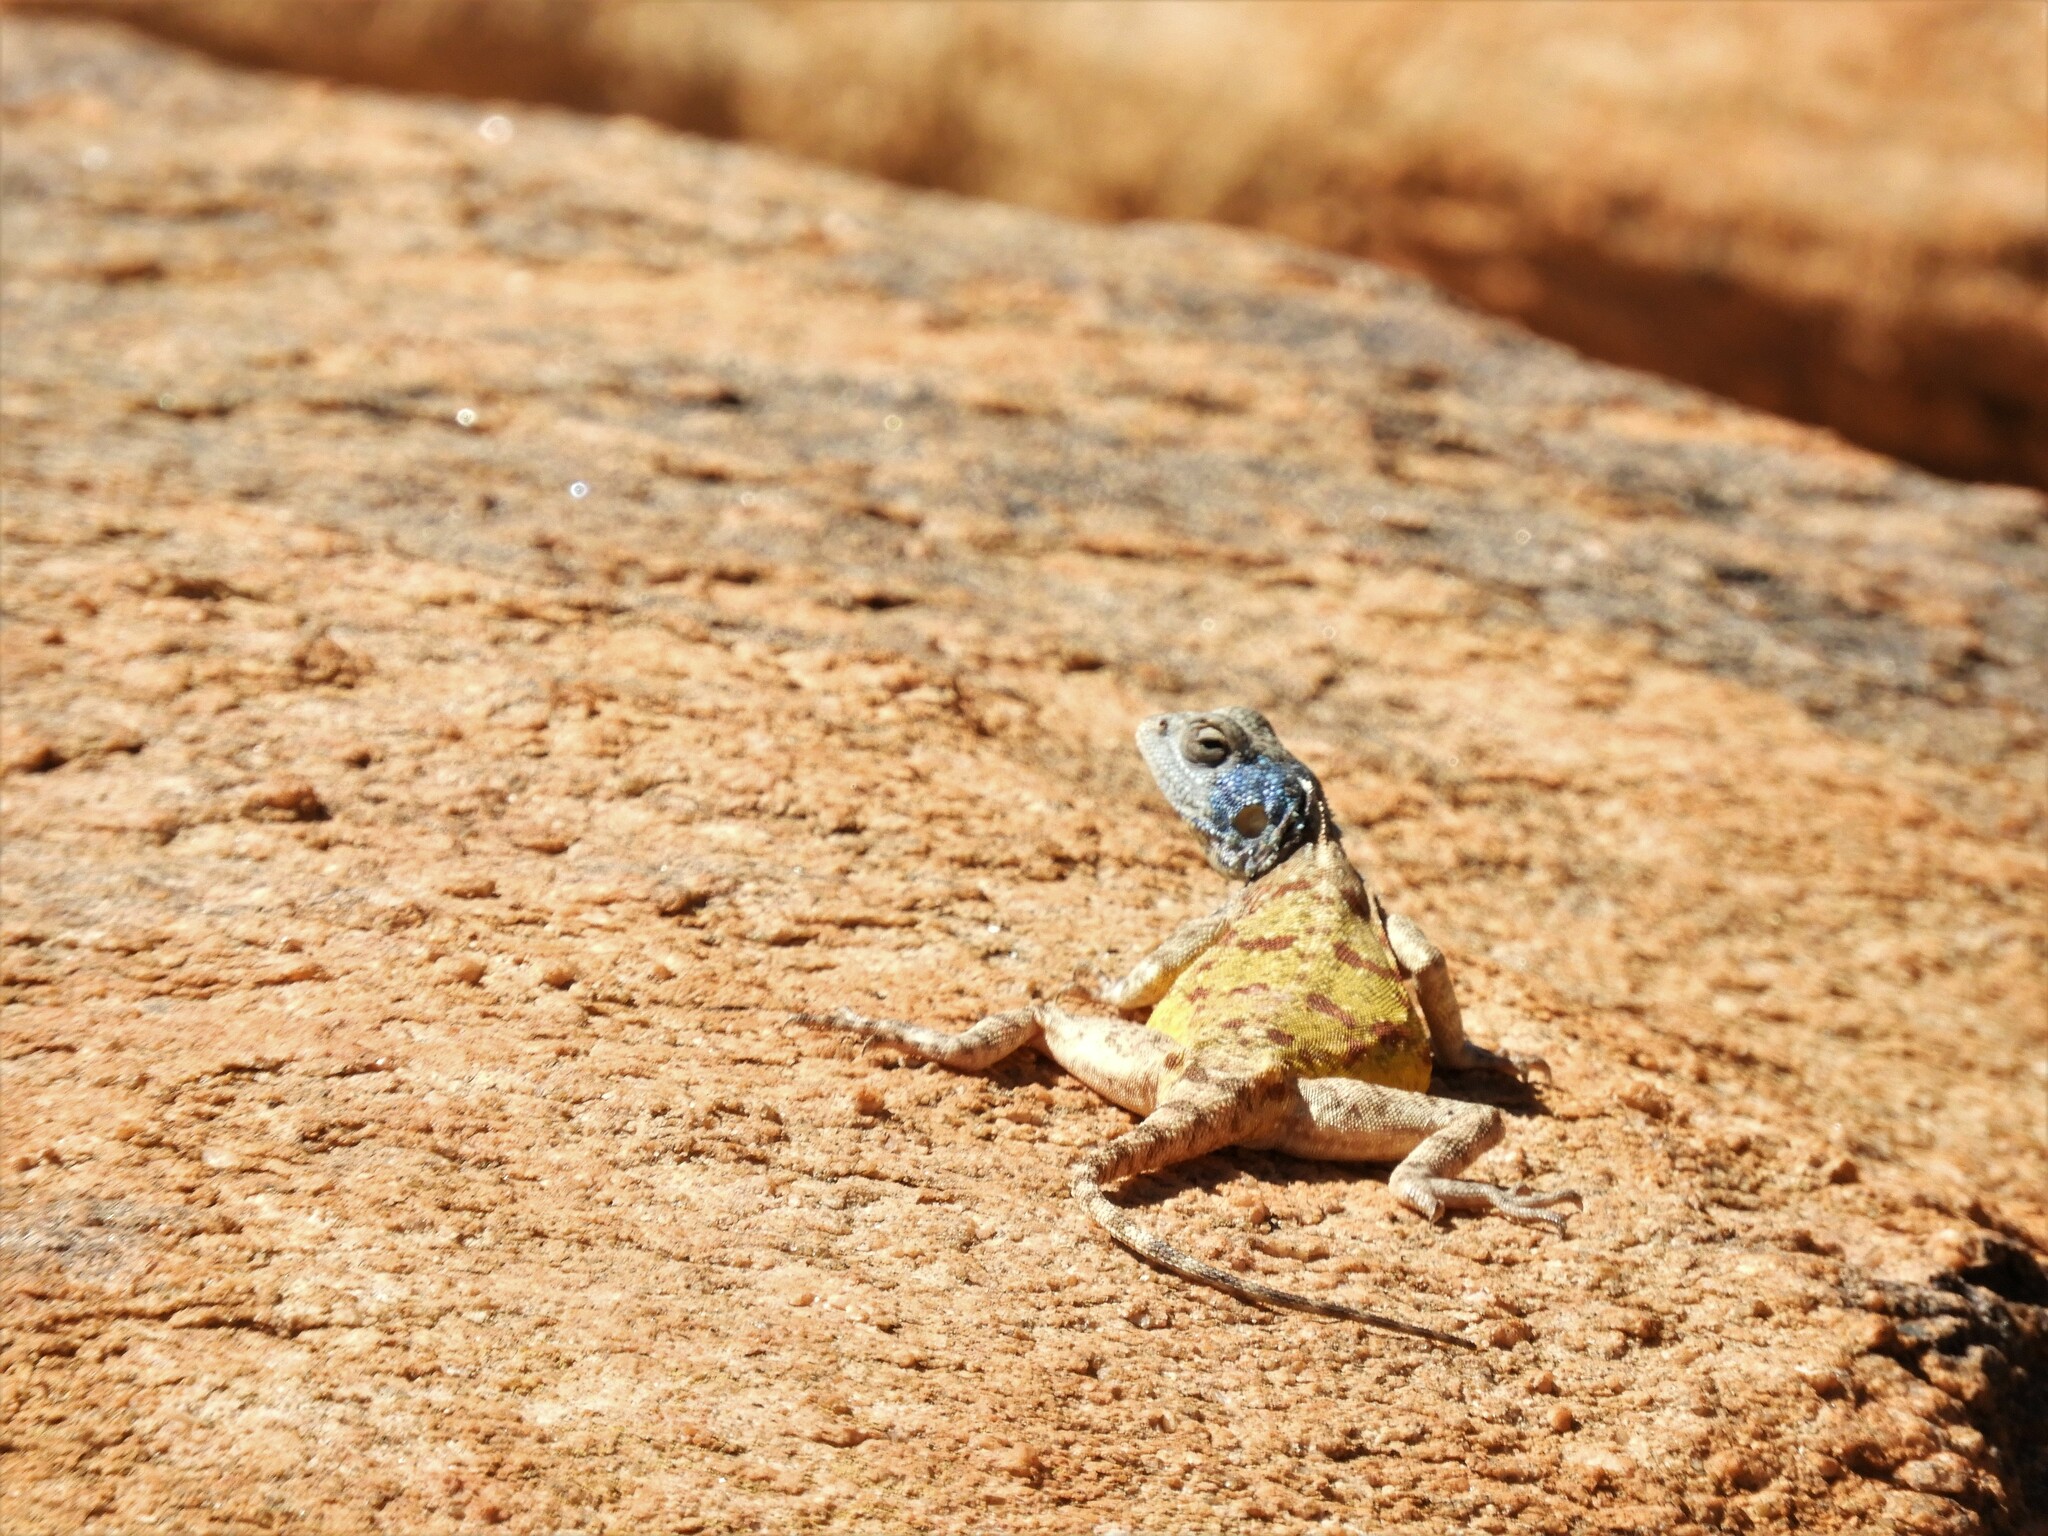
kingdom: Animalia
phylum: Chordata
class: Squamata
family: Agamidae
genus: Agama
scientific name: Agama atra
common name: Southern african rock agama
